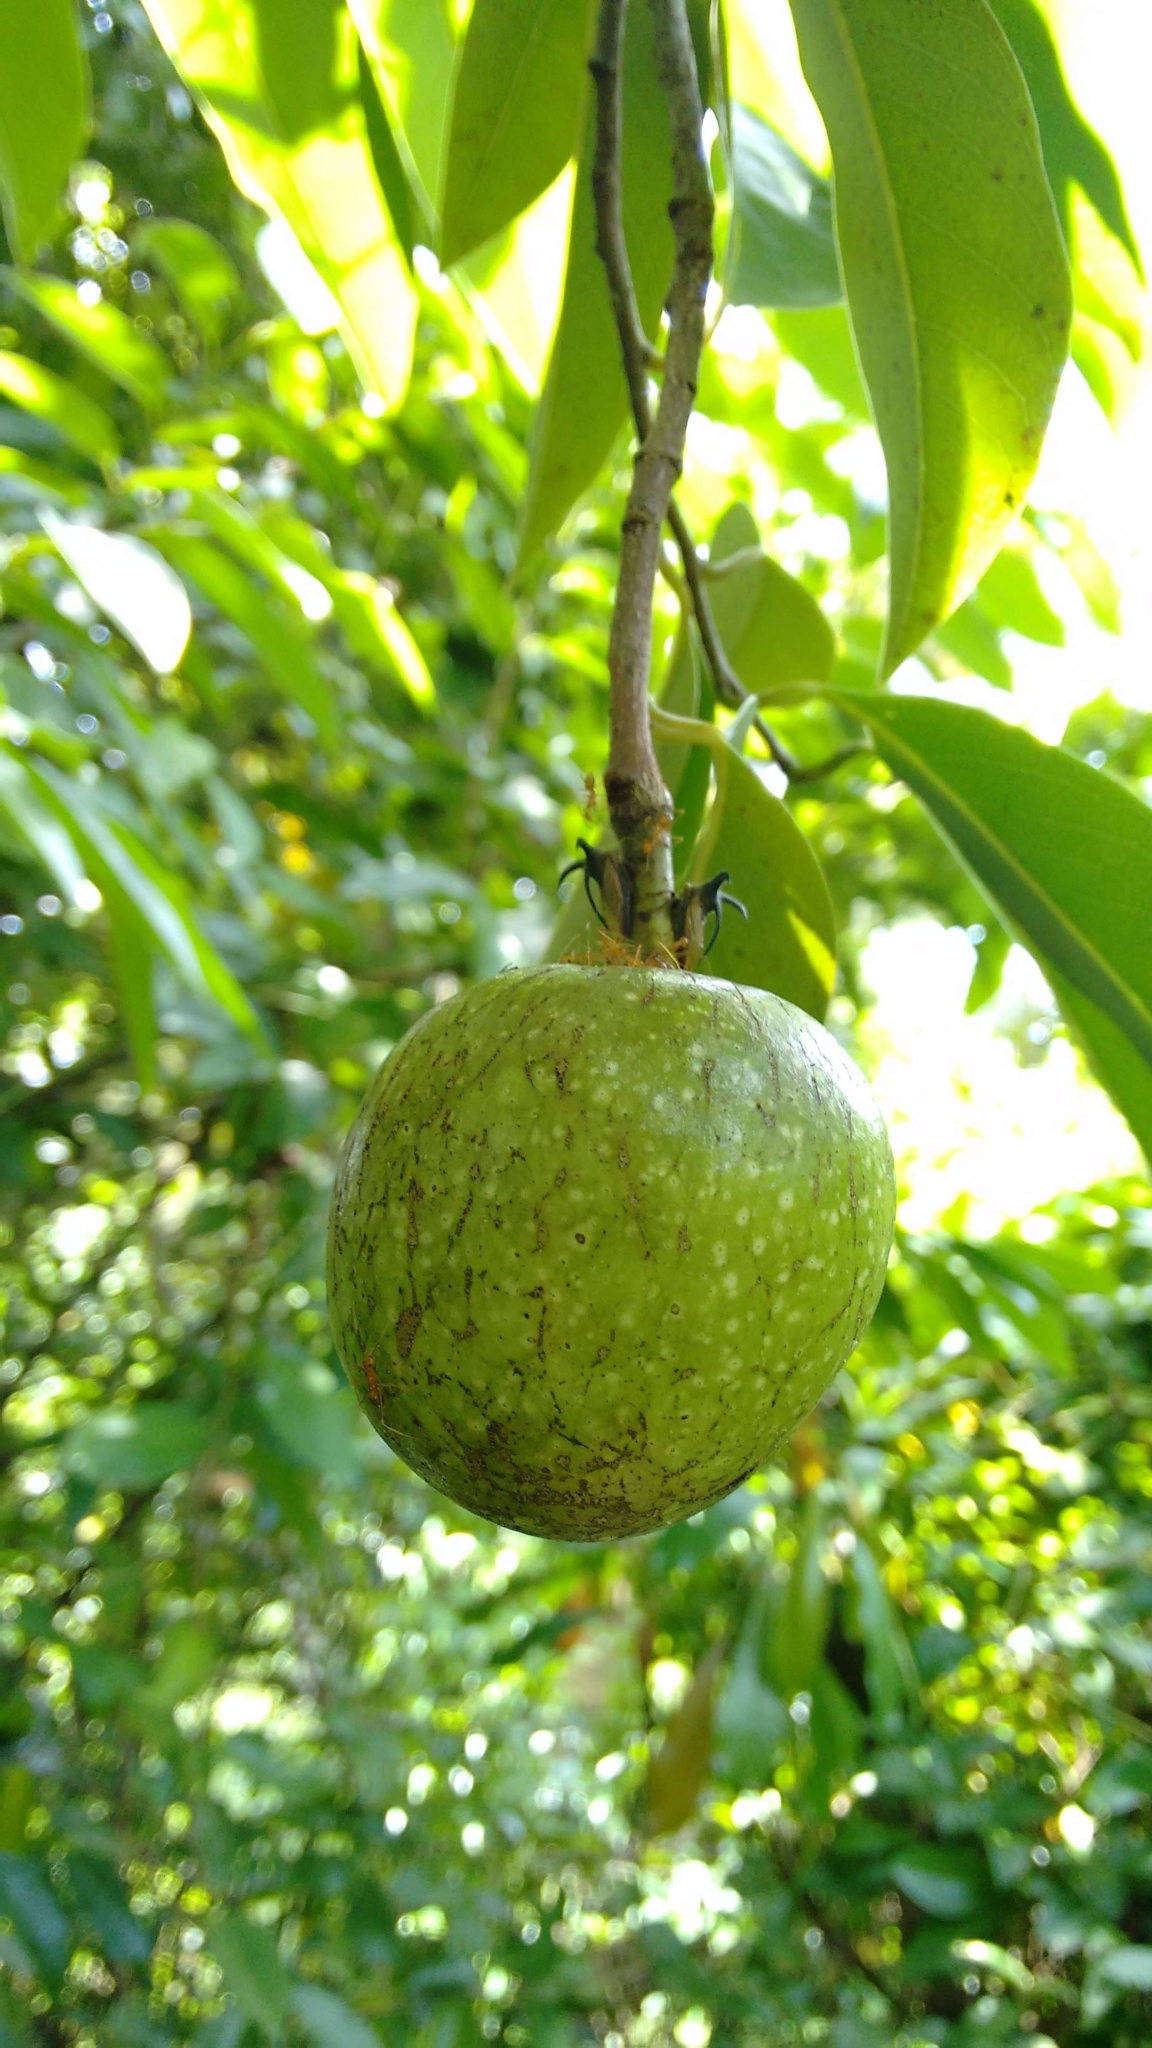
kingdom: Plantae
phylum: Tracheophyta
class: Magnoliopsida
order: Magnoliales
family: Annonaceae
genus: Annona
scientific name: Annona glabra
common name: Monkey apple
